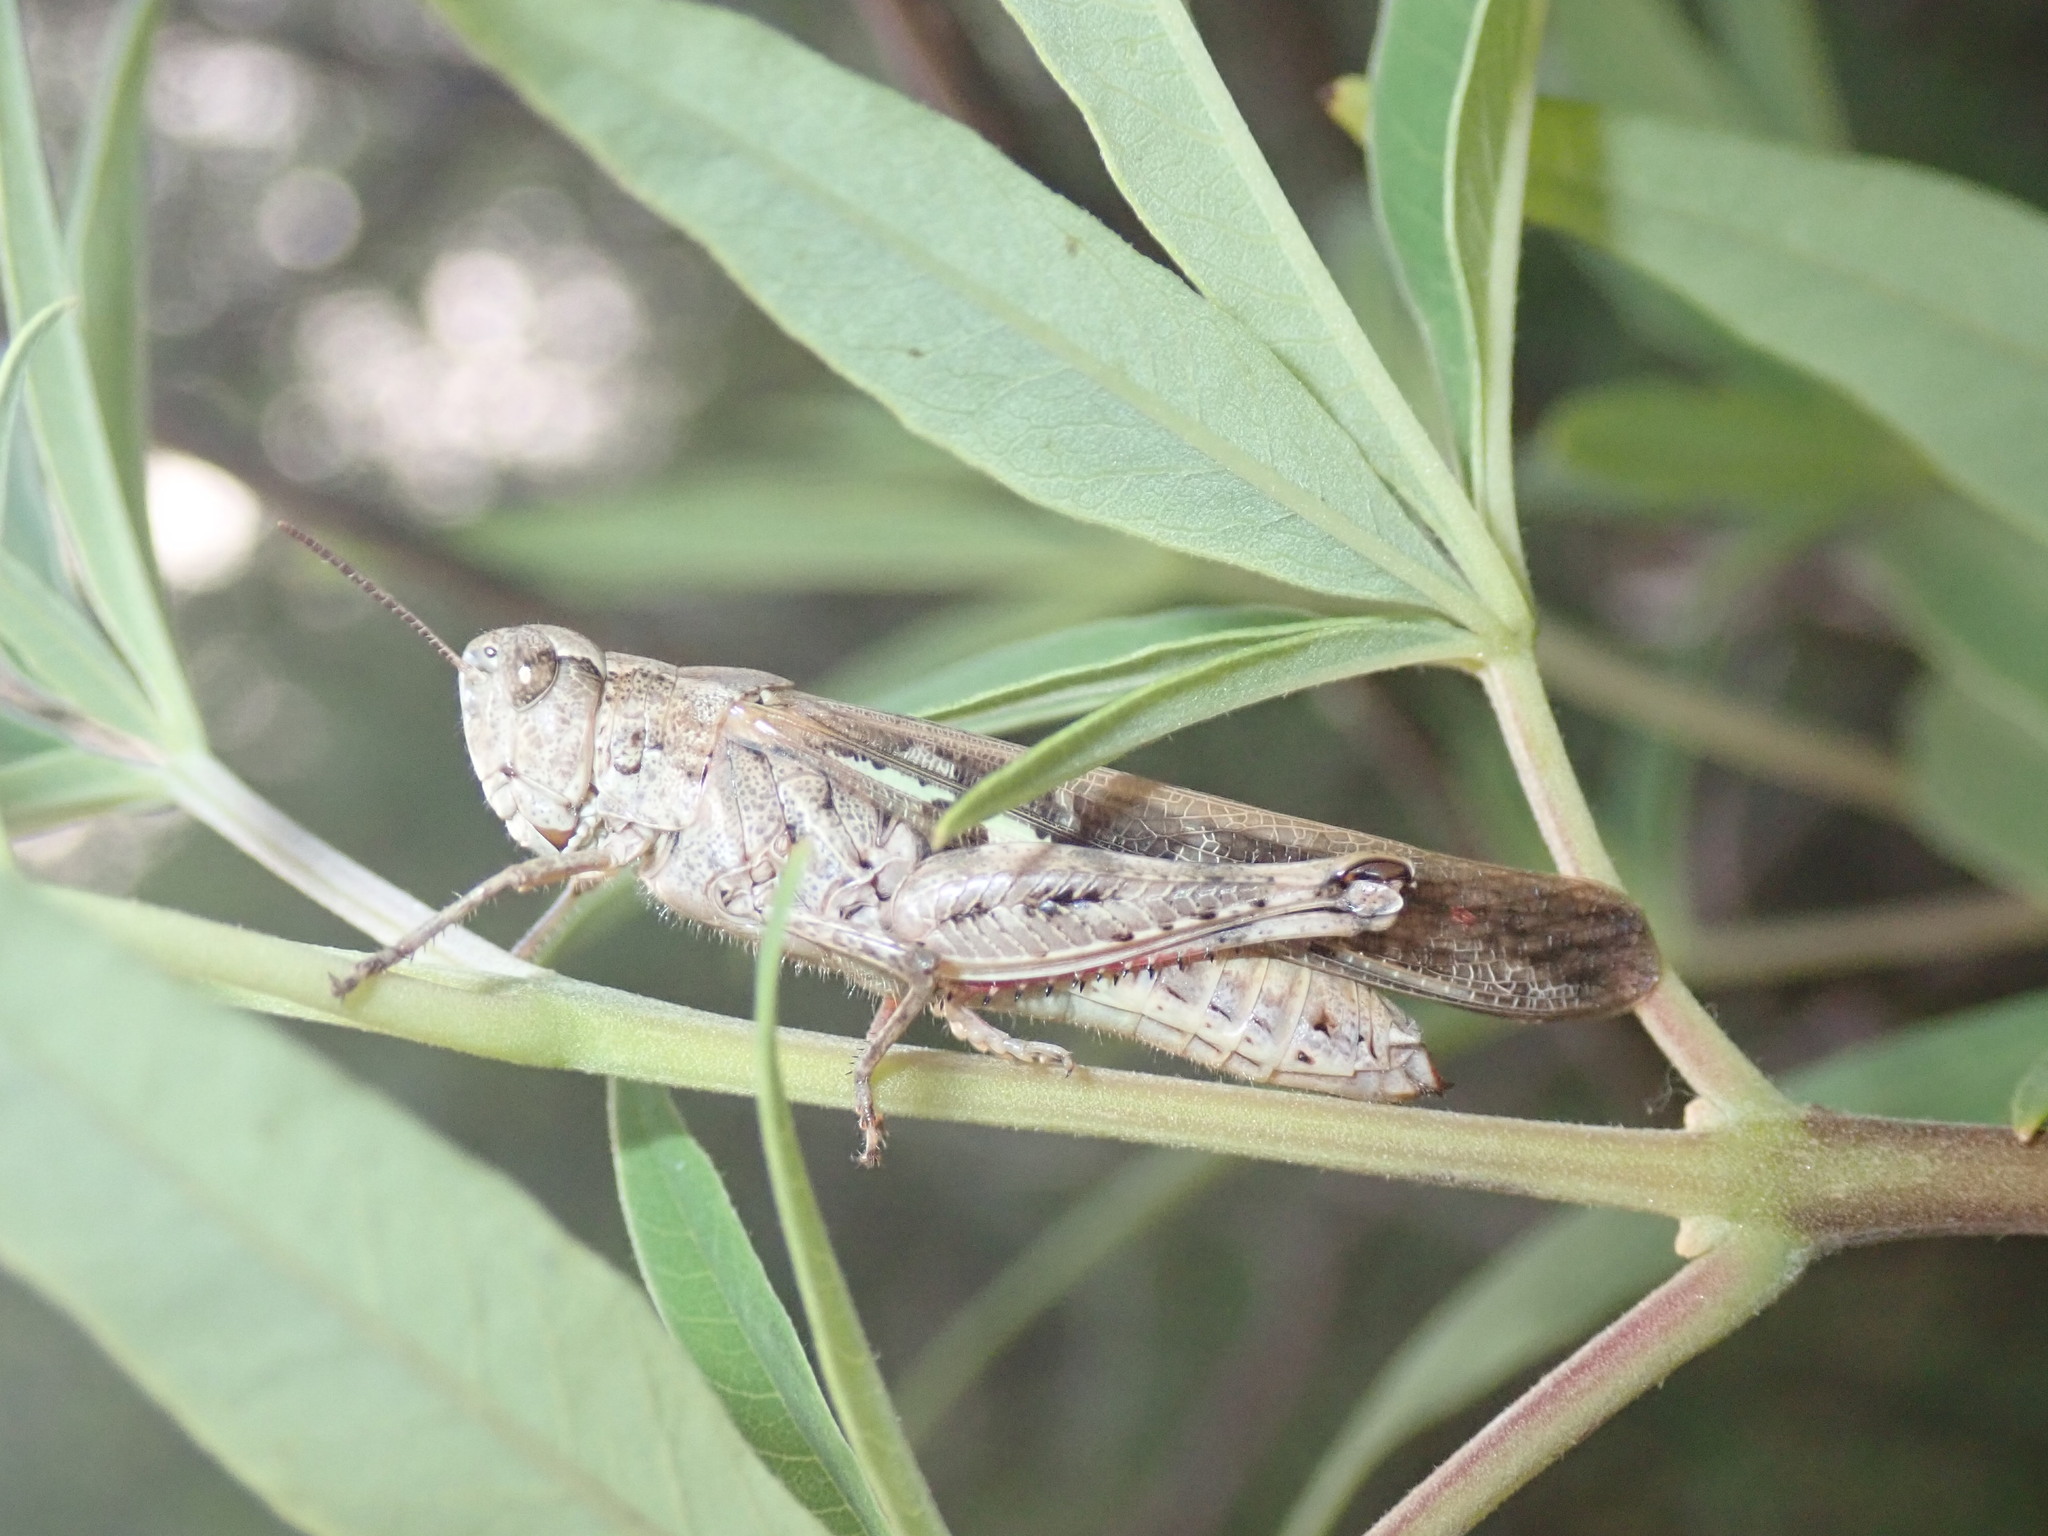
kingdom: Animalia
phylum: Arthropoda
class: Insecta
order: Orthoptera
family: Acrididae
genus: Aiolopus
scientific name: Aiolopus thalassinus
